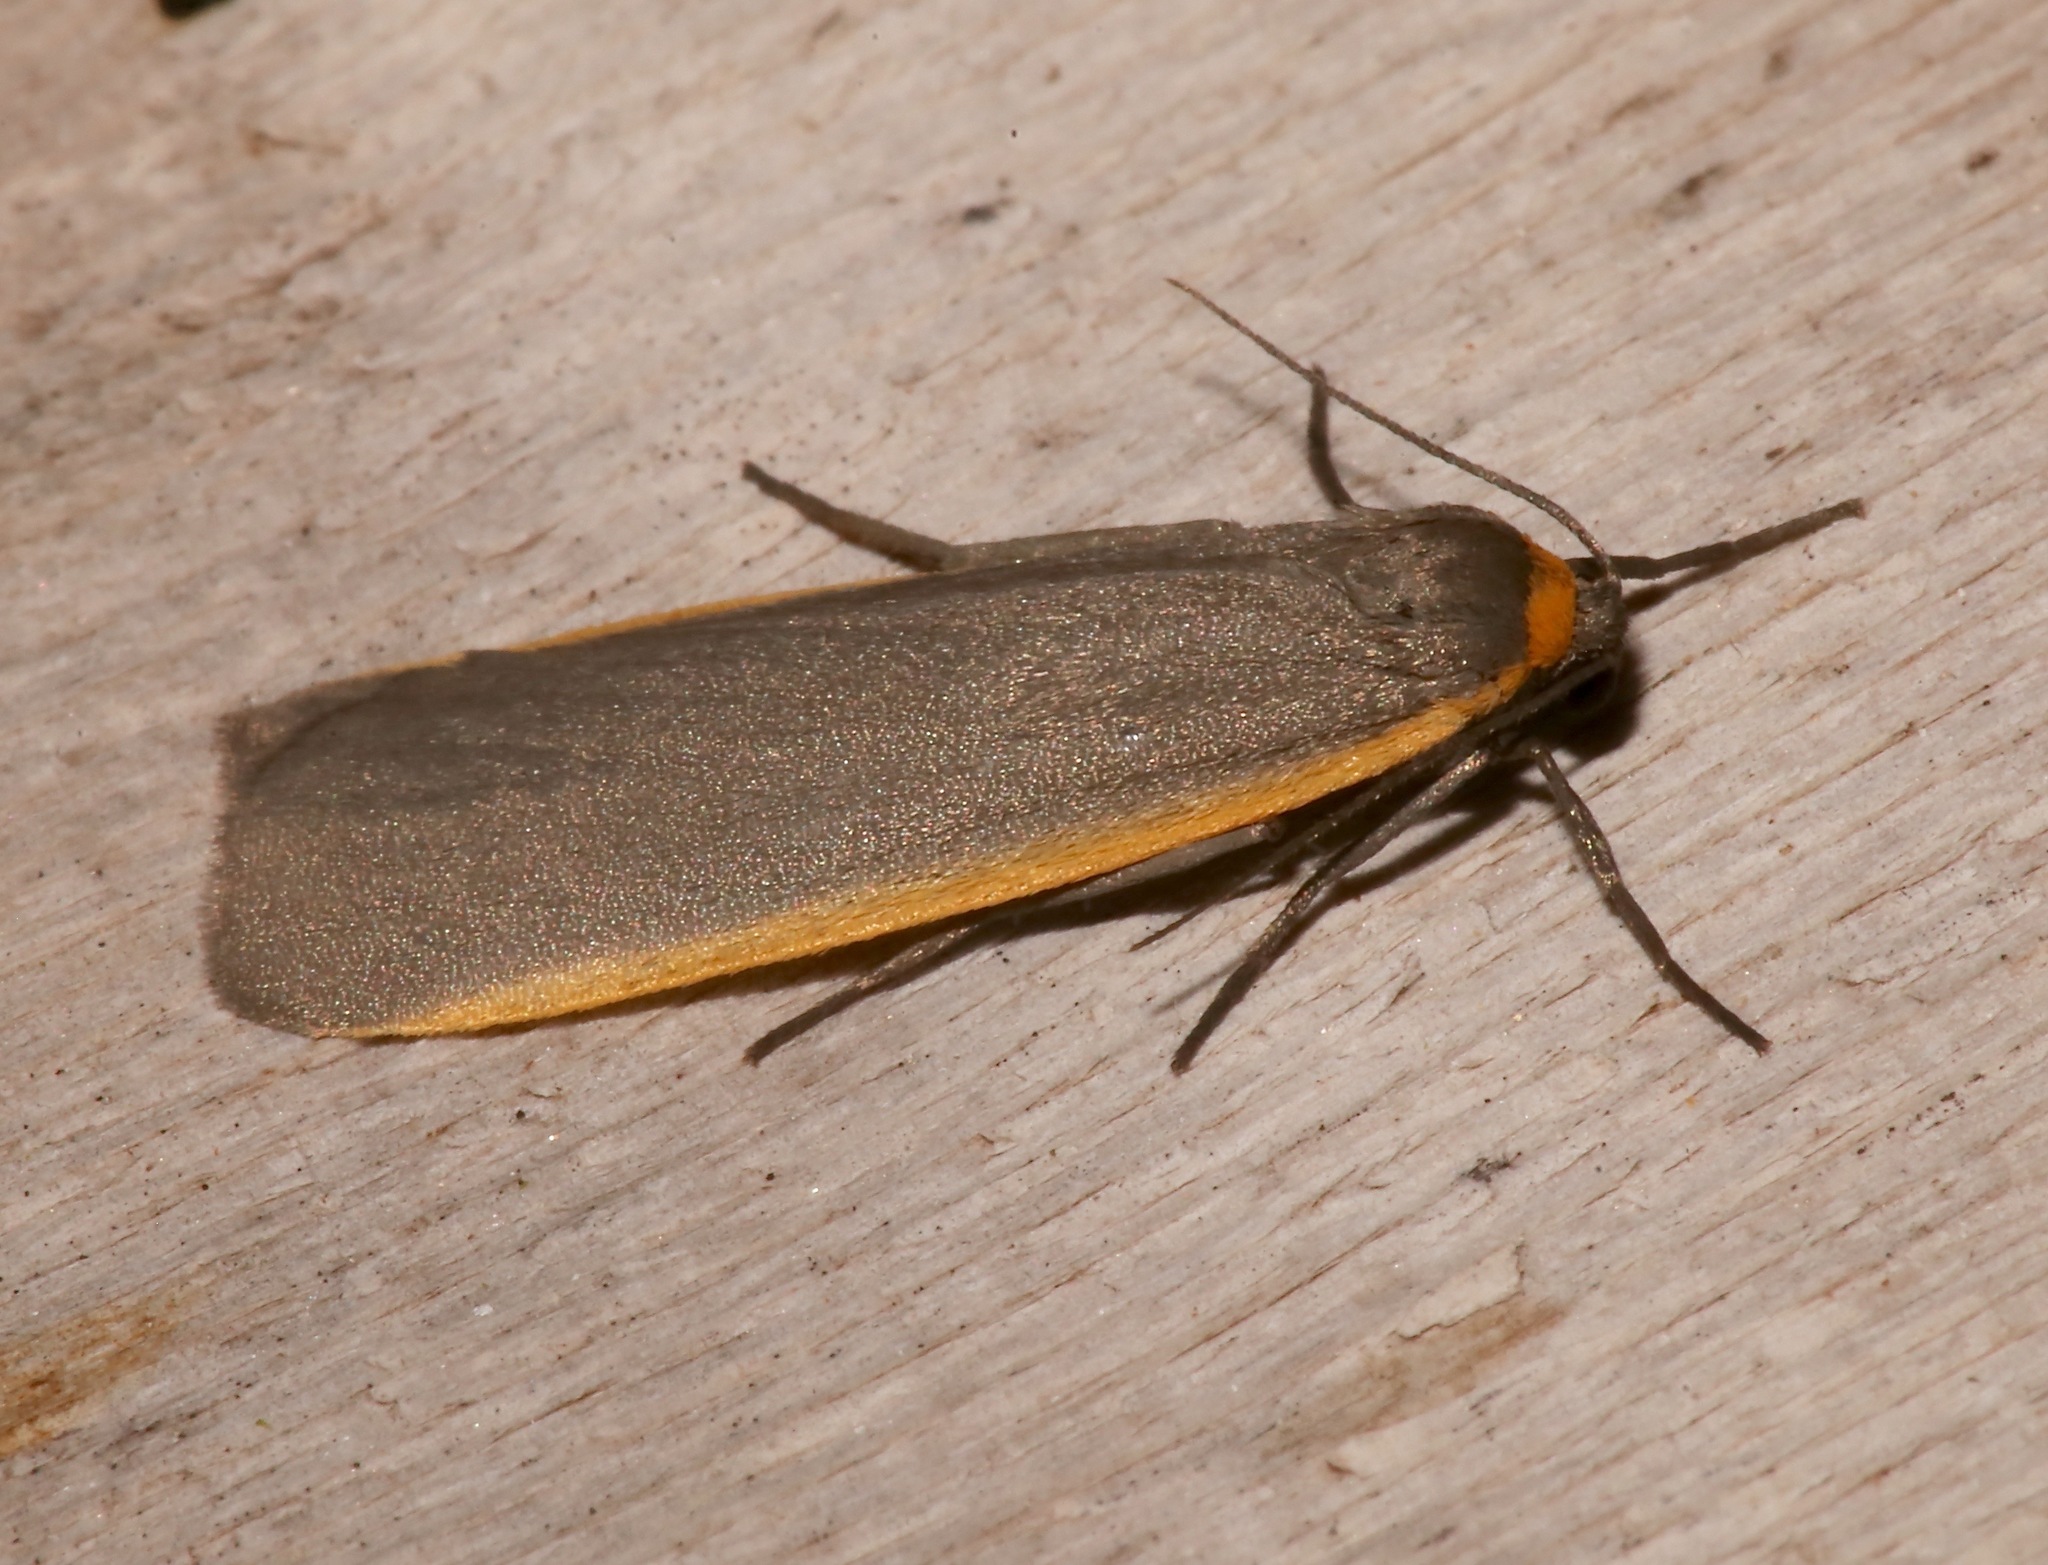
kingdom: Animalia
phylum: Arthropoda
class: Insecta
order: Lepidoptera
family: Erebidae
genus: Manulea
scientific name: Manulea bicolor
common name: Bicolored moth
